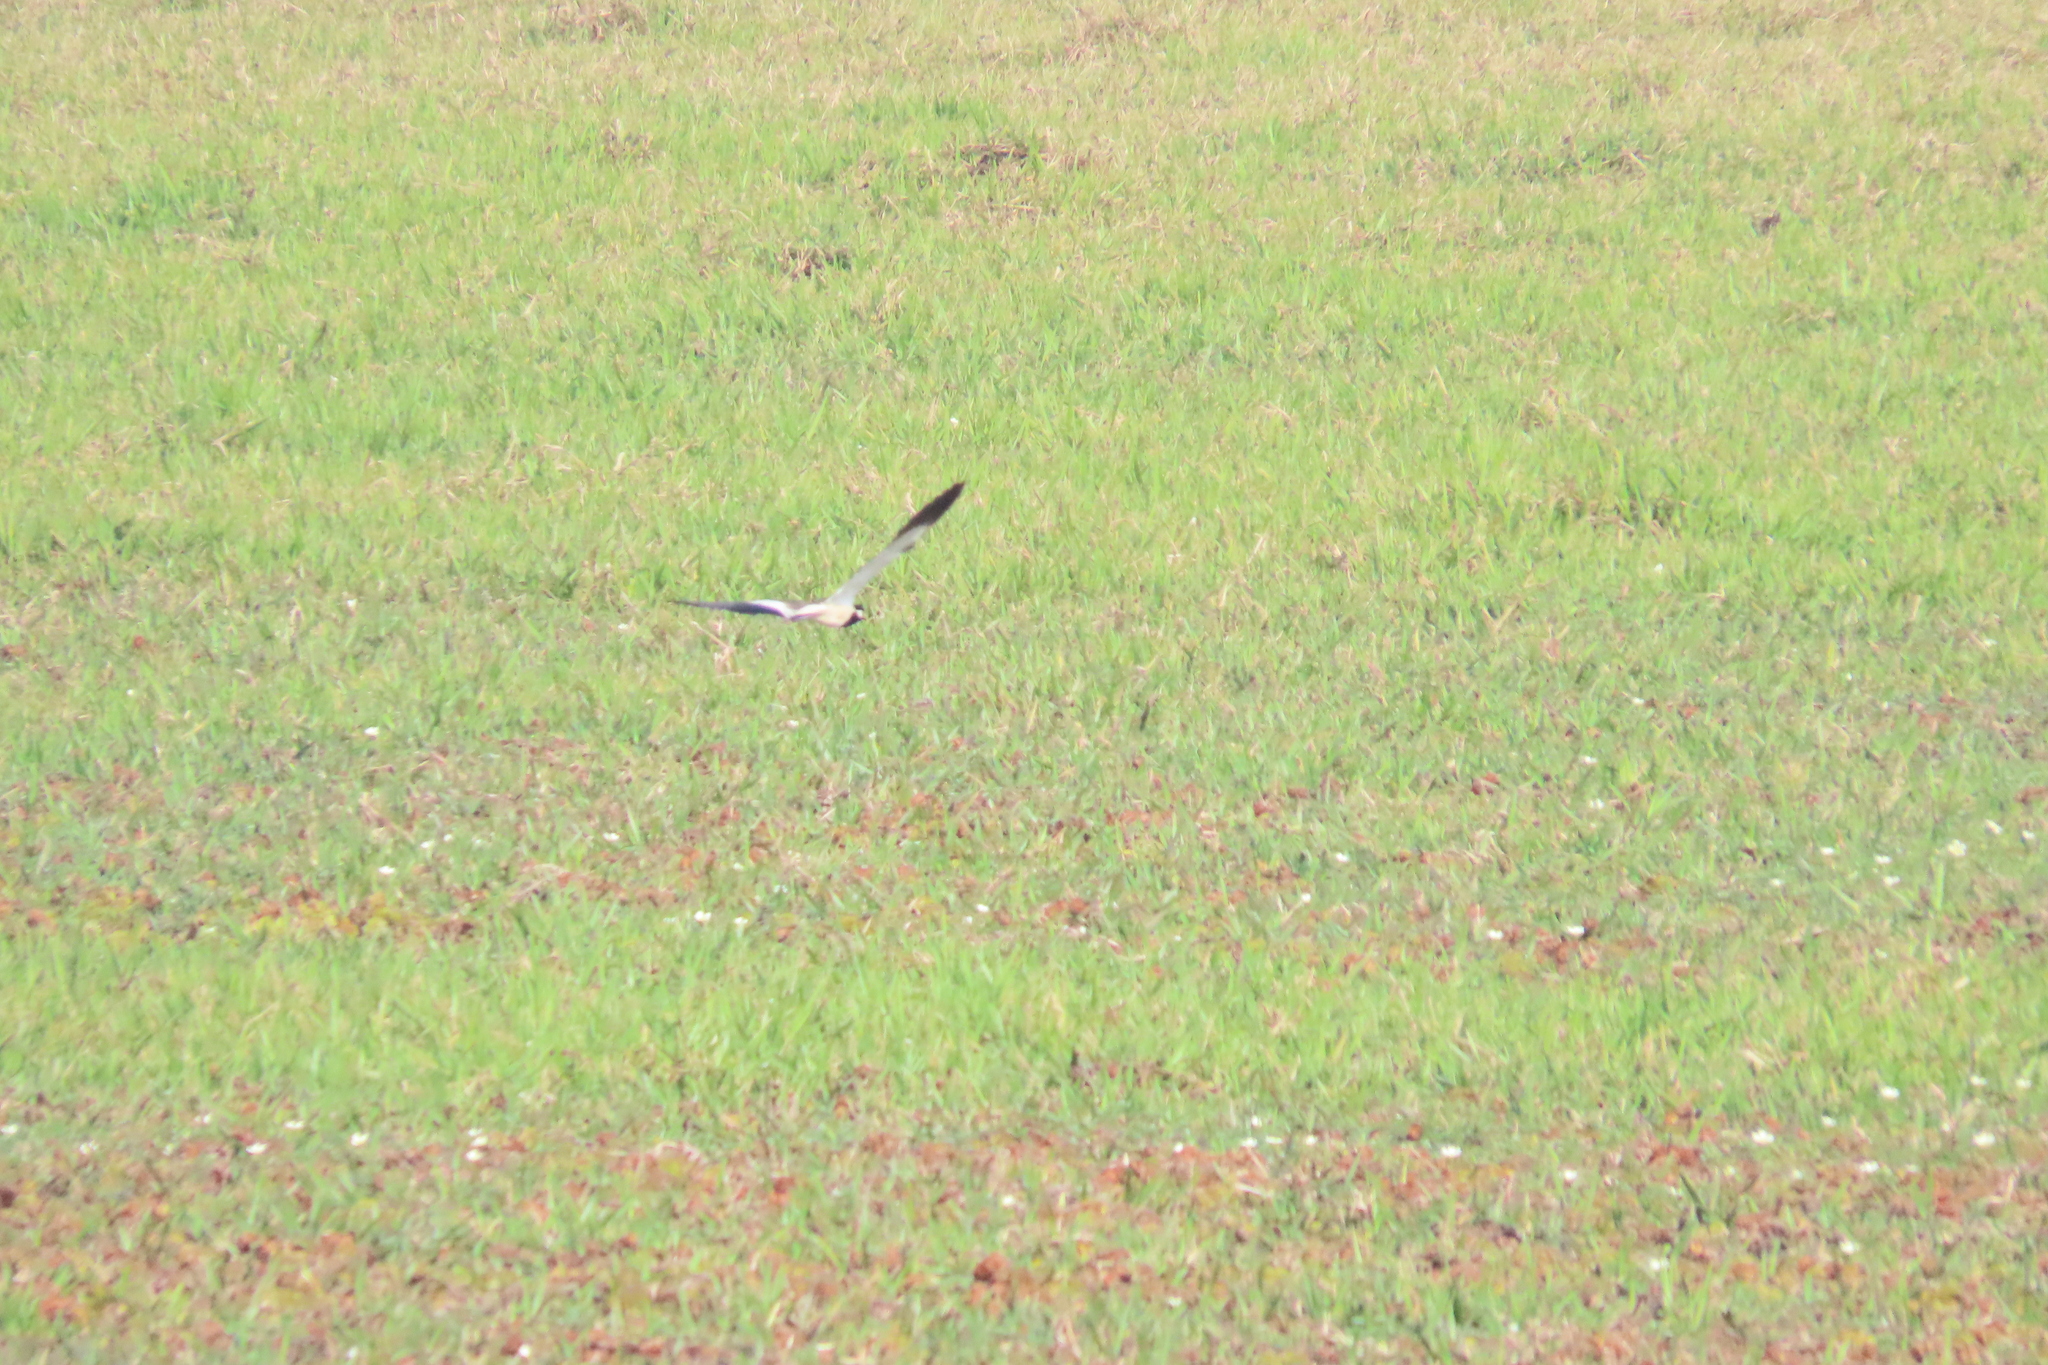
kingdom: Animalia
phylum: Chordata
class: Aves
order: Charadriiformes
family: Charadriidae
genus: Vanellus
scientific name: Vanellus indicus
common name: Red-wattled lapwing
